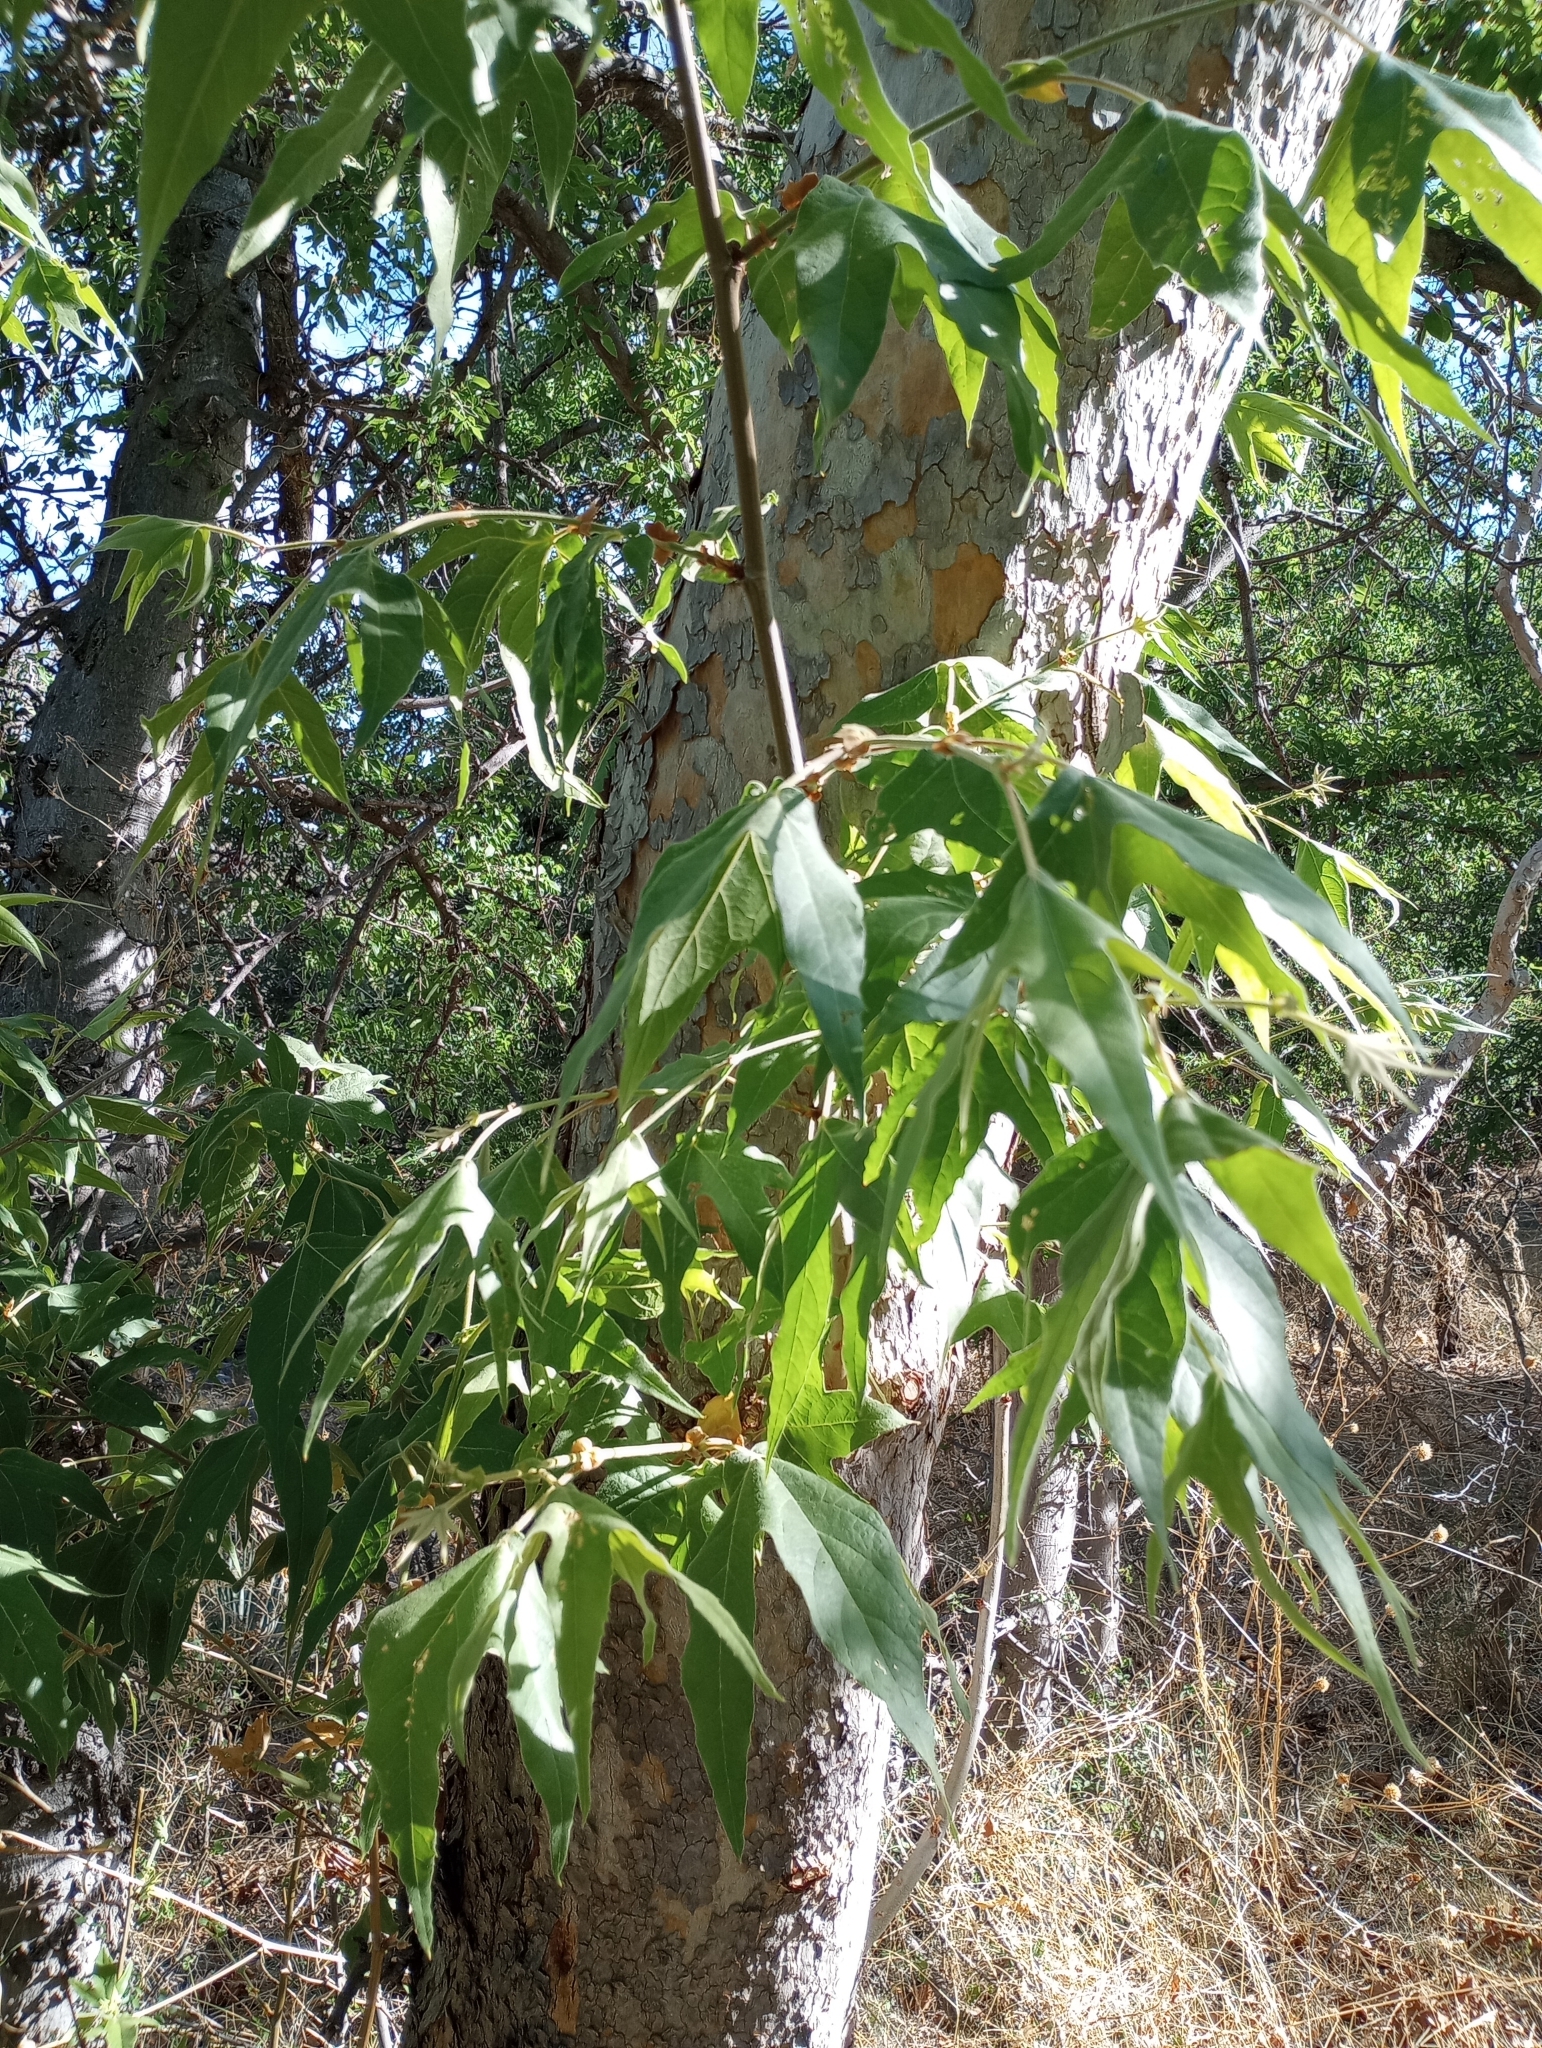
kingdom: Plantae
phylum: Tracheophyta
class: Magnoliopsida
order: Proteales
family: Platanaceae
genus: Platanus
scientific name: Platanus wrightii
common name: Arizona sycamore
